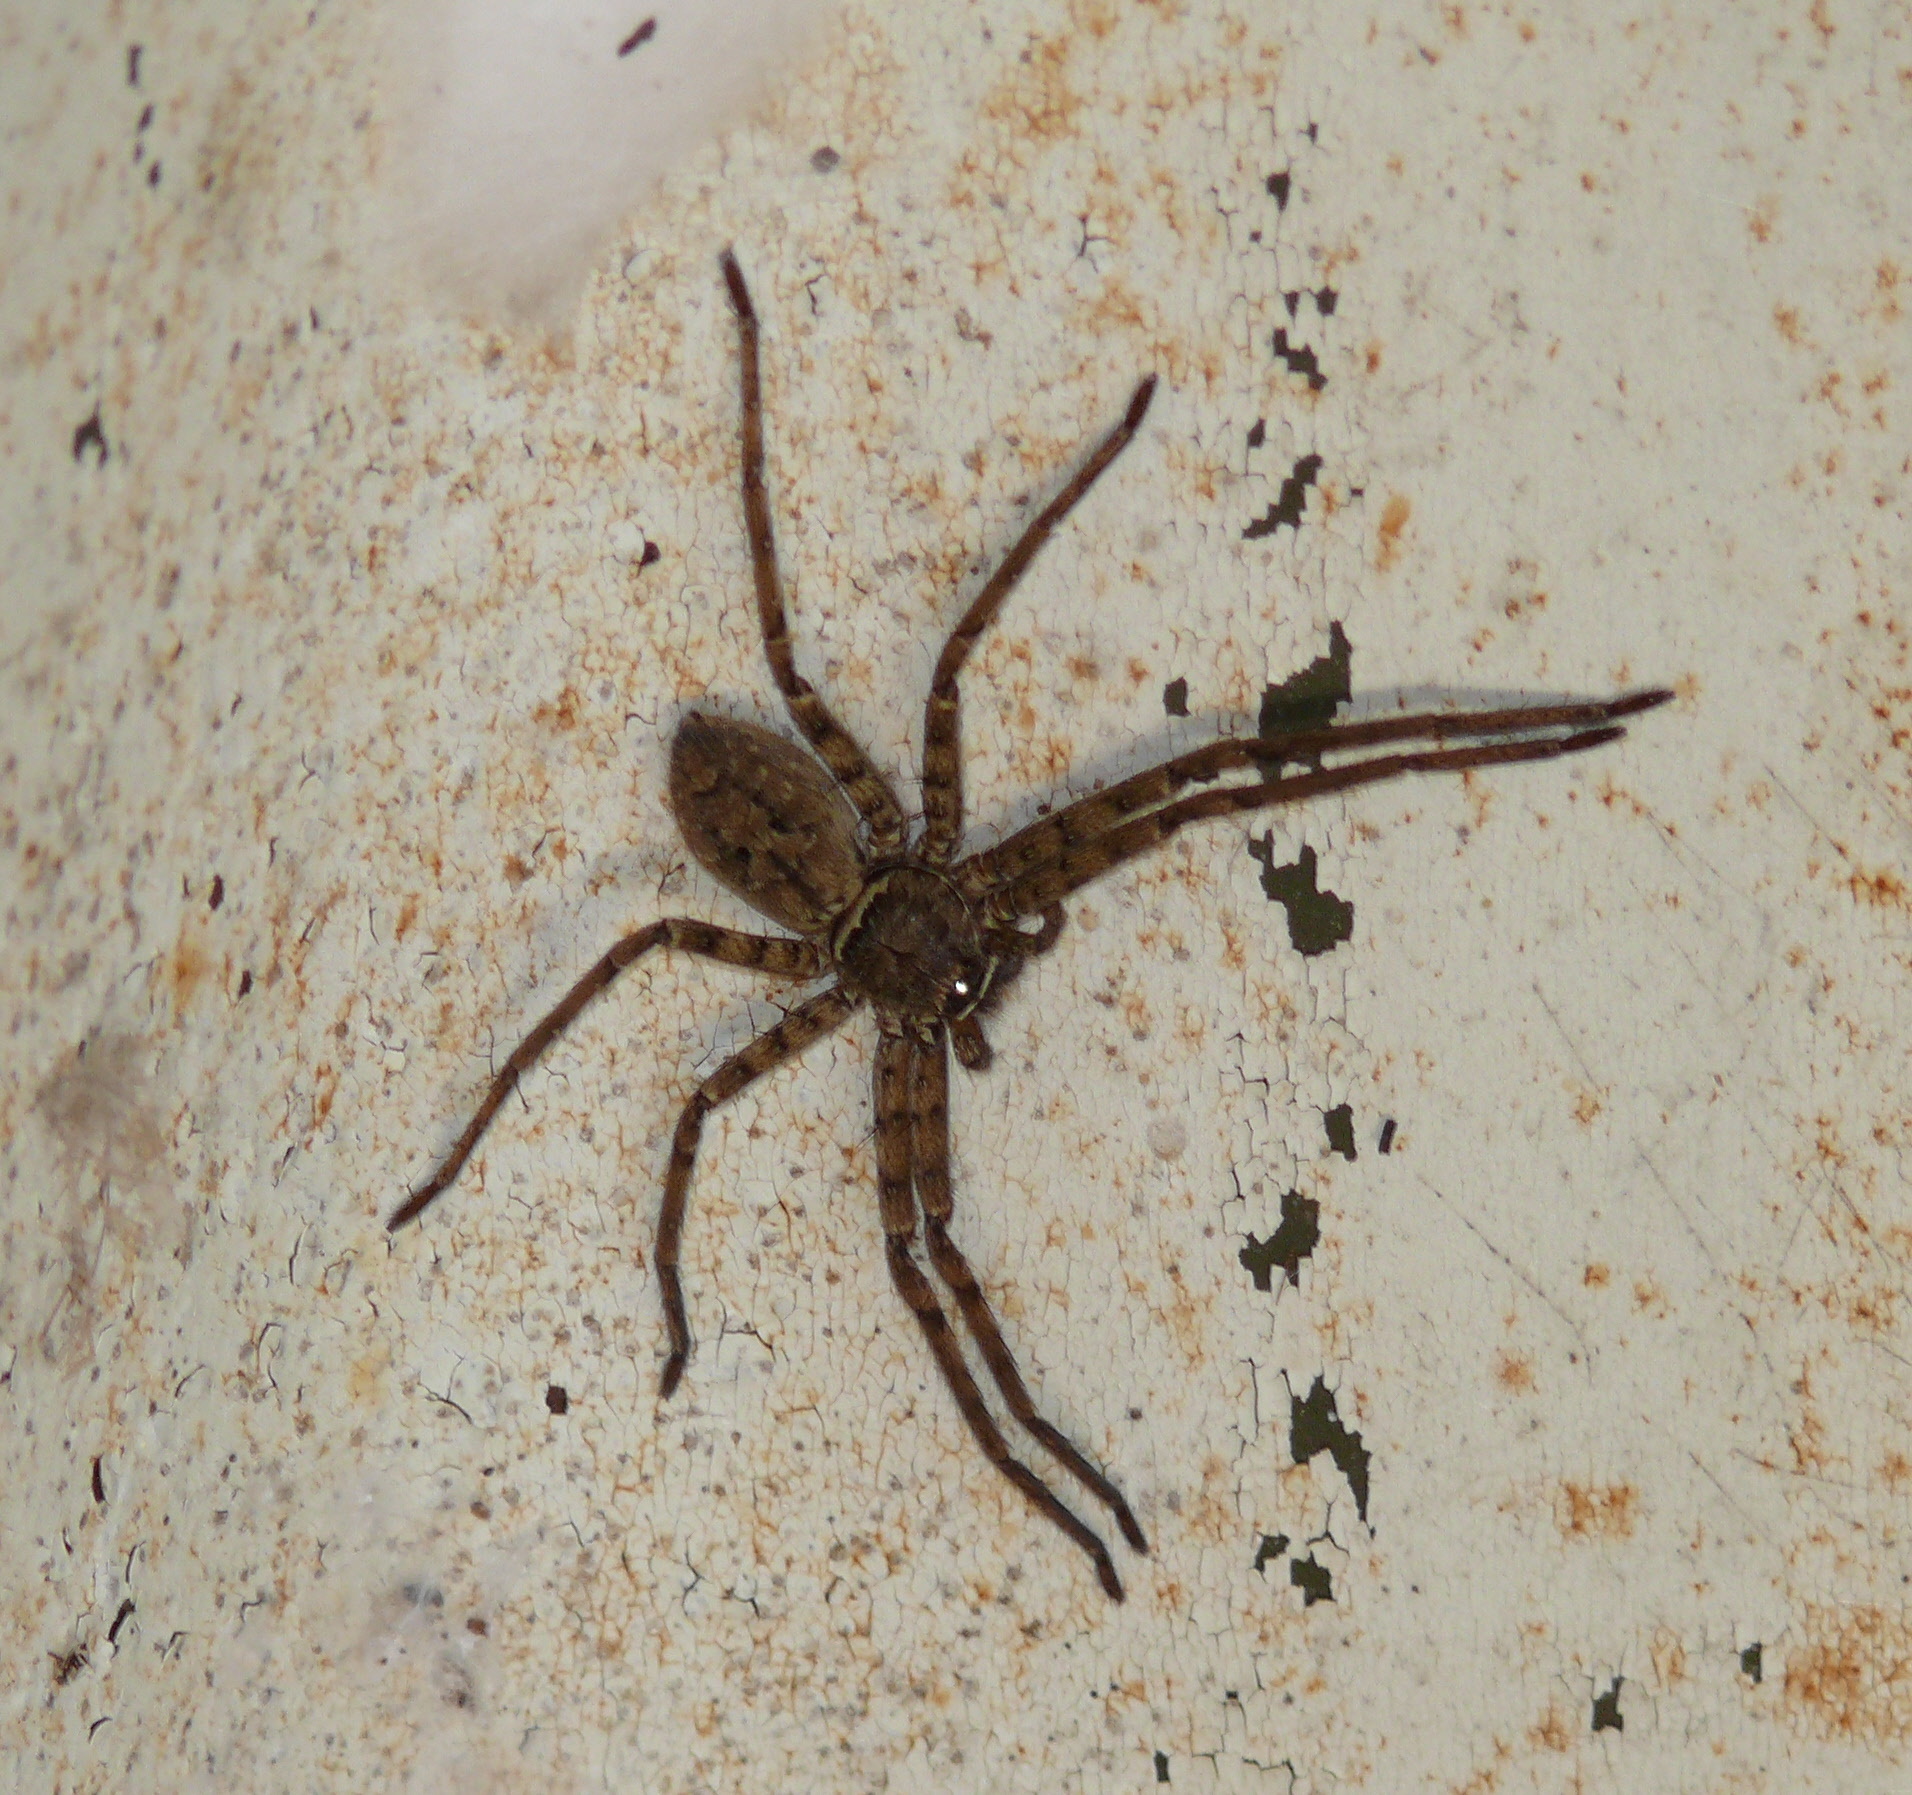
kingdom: Animalia
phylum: Arthropoda
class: Arachnida
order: Araneae
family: Sparassidae
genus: Heteropoda
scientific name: Heteropoda venatoria
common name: Huntsman spider
